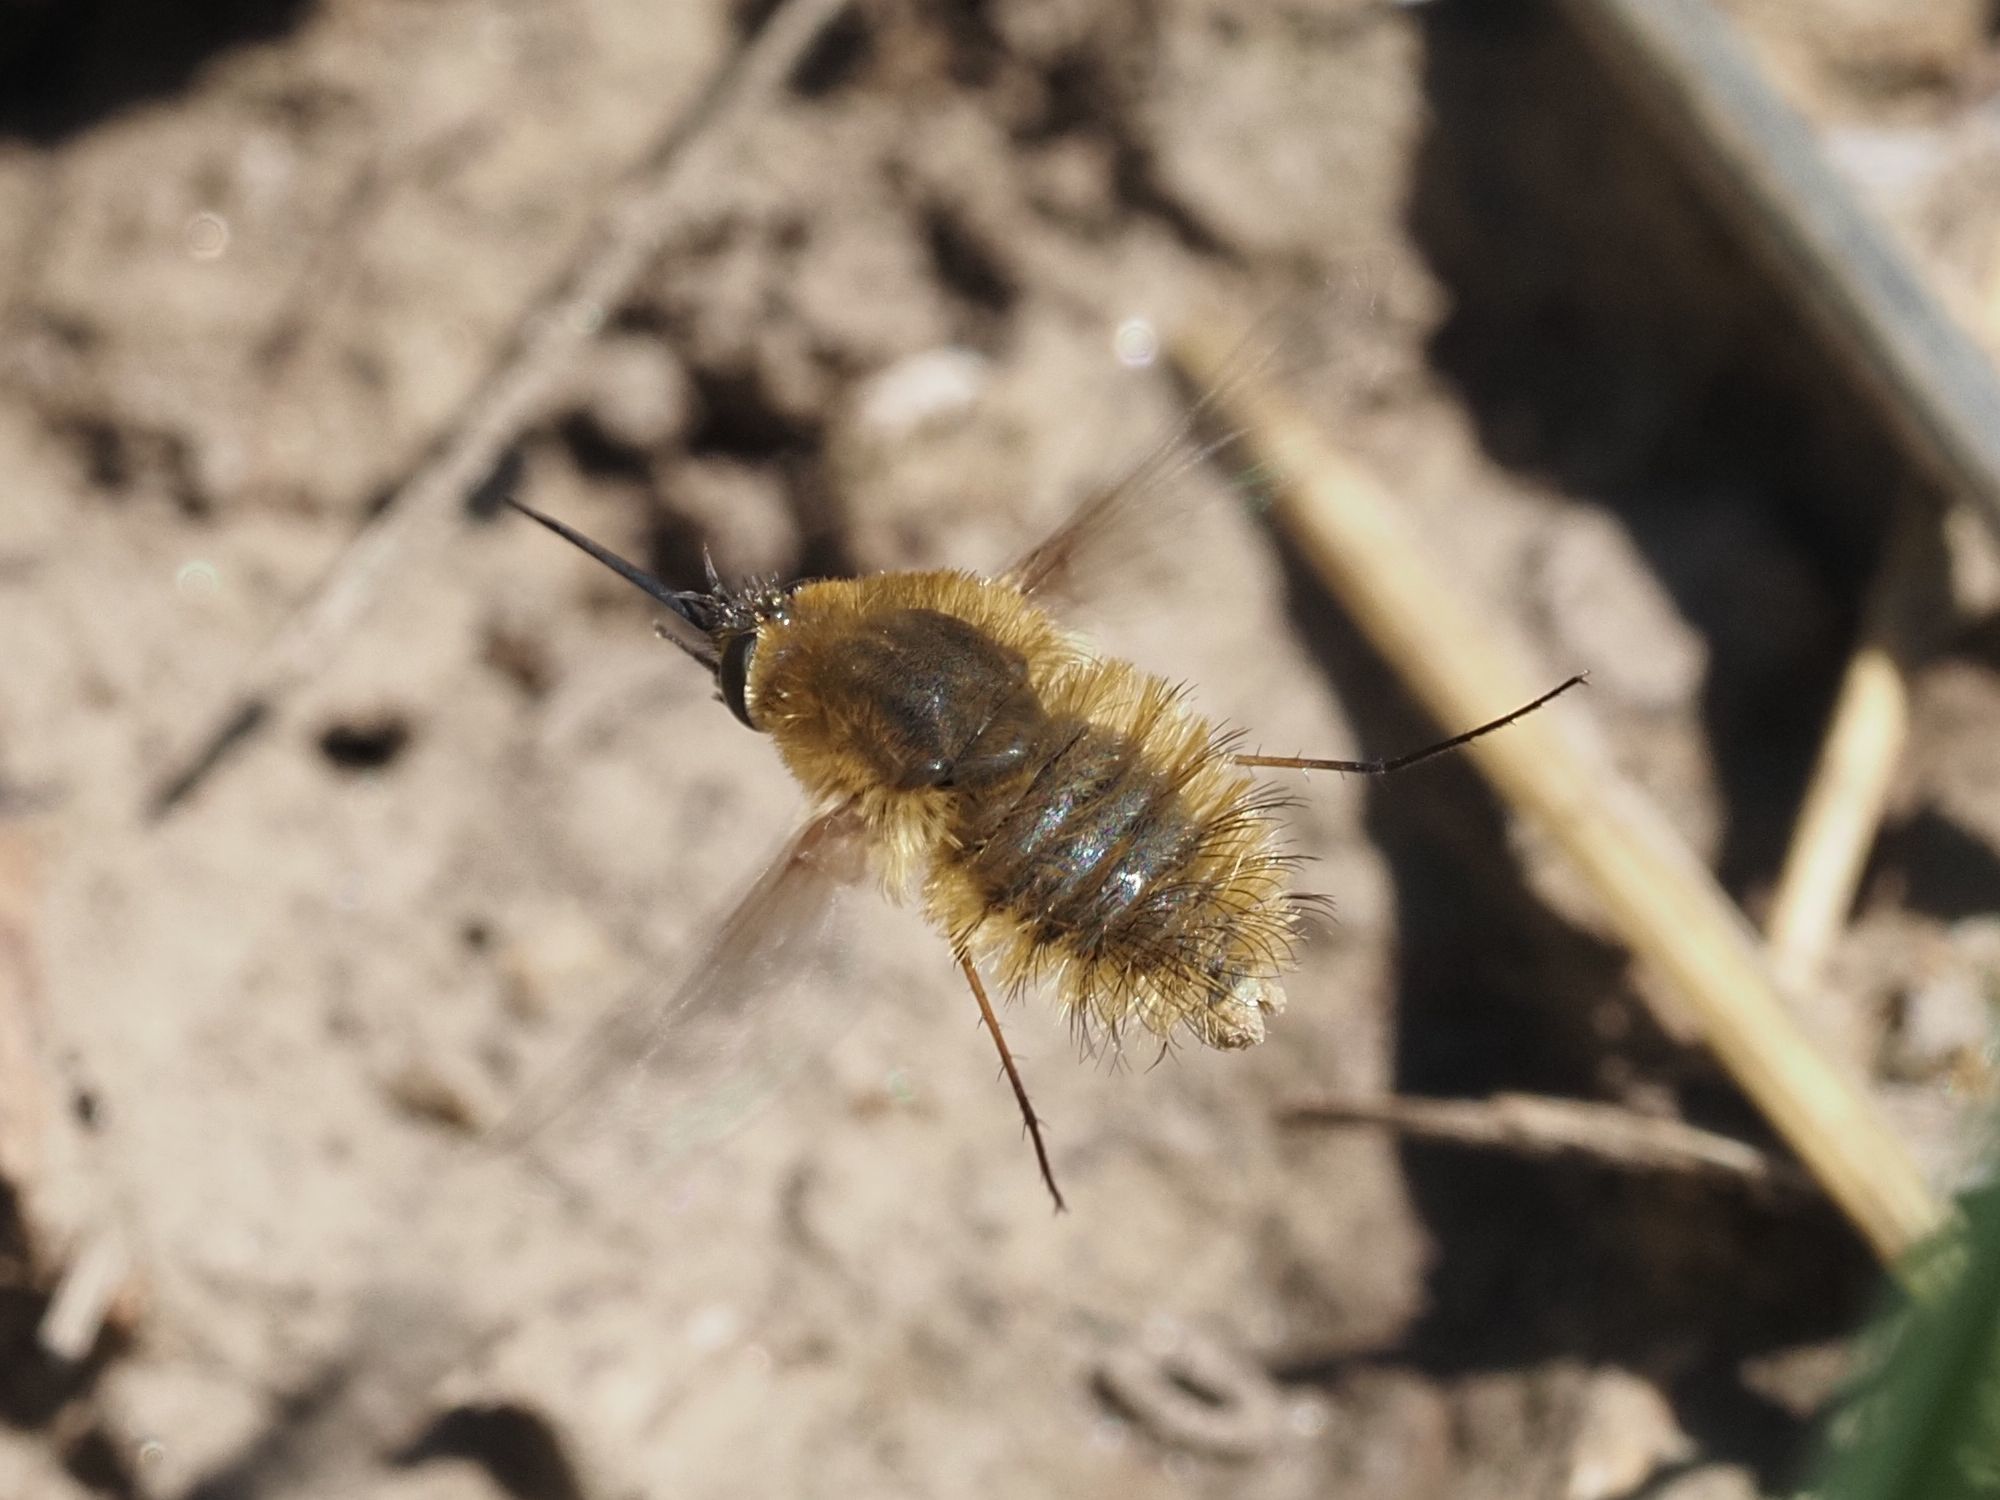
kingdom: Animalia
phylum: Arthropoda
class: Insecta
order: Diptera
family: Bombyliidae
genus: Systoechus
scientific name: Systoechus ctenopterus
